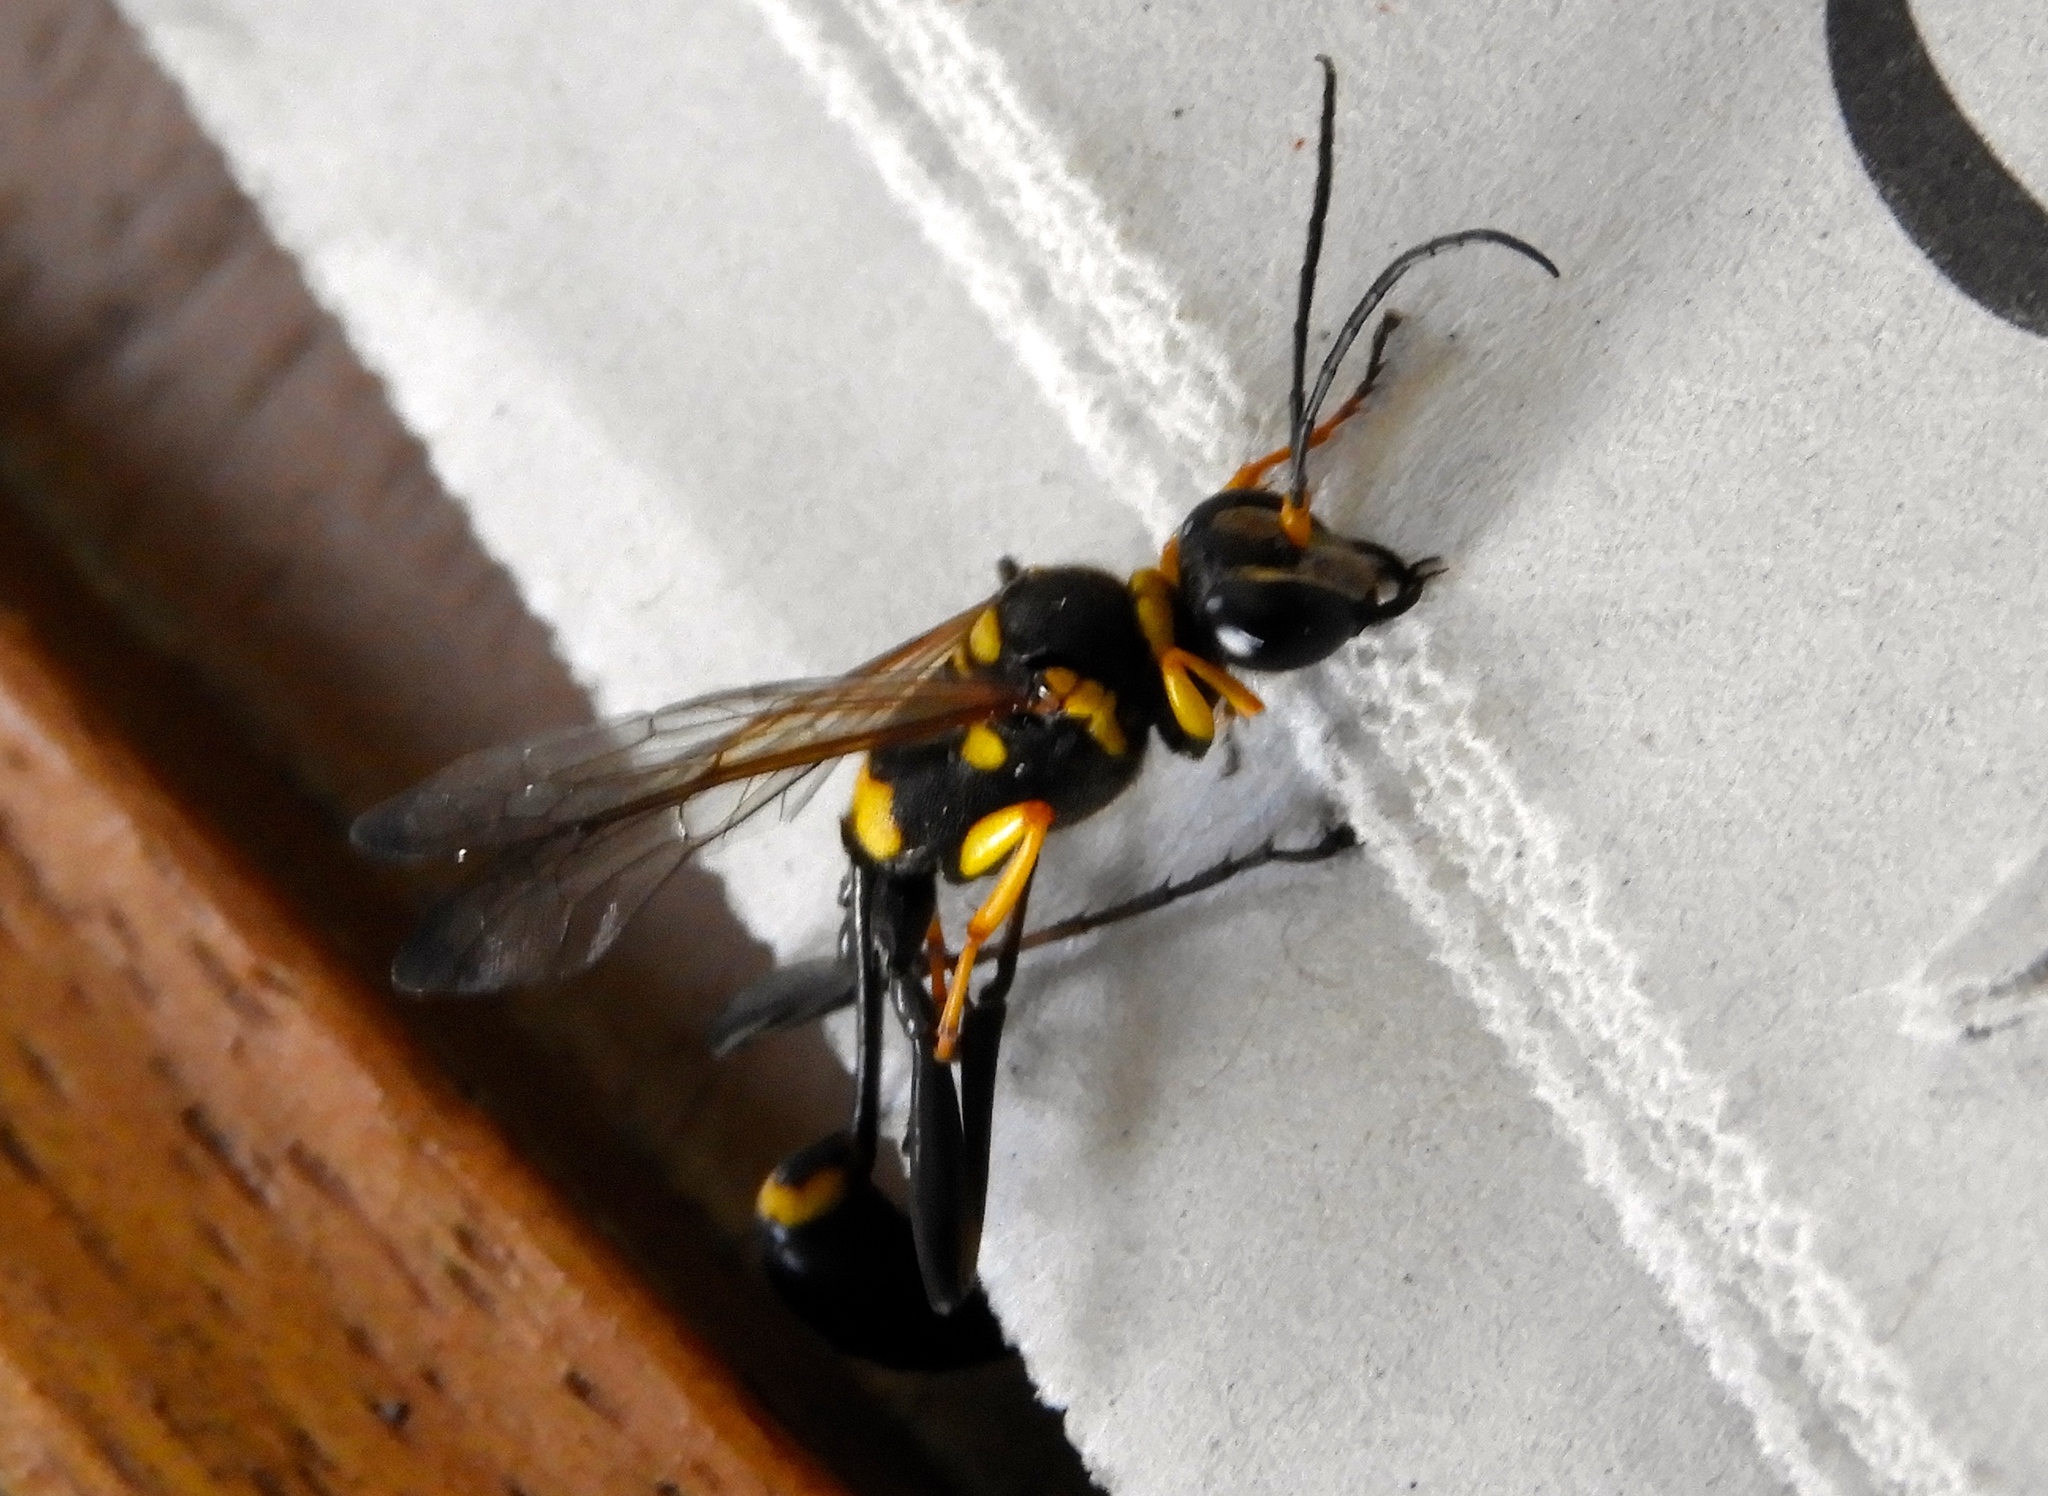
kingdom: Animalia
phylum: Arthropoda
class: Insecta
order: Hymenoptera
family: Sphecidae
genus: Sceliphron
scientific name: Sceliphron assimile
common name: Clayman's mud dauber
